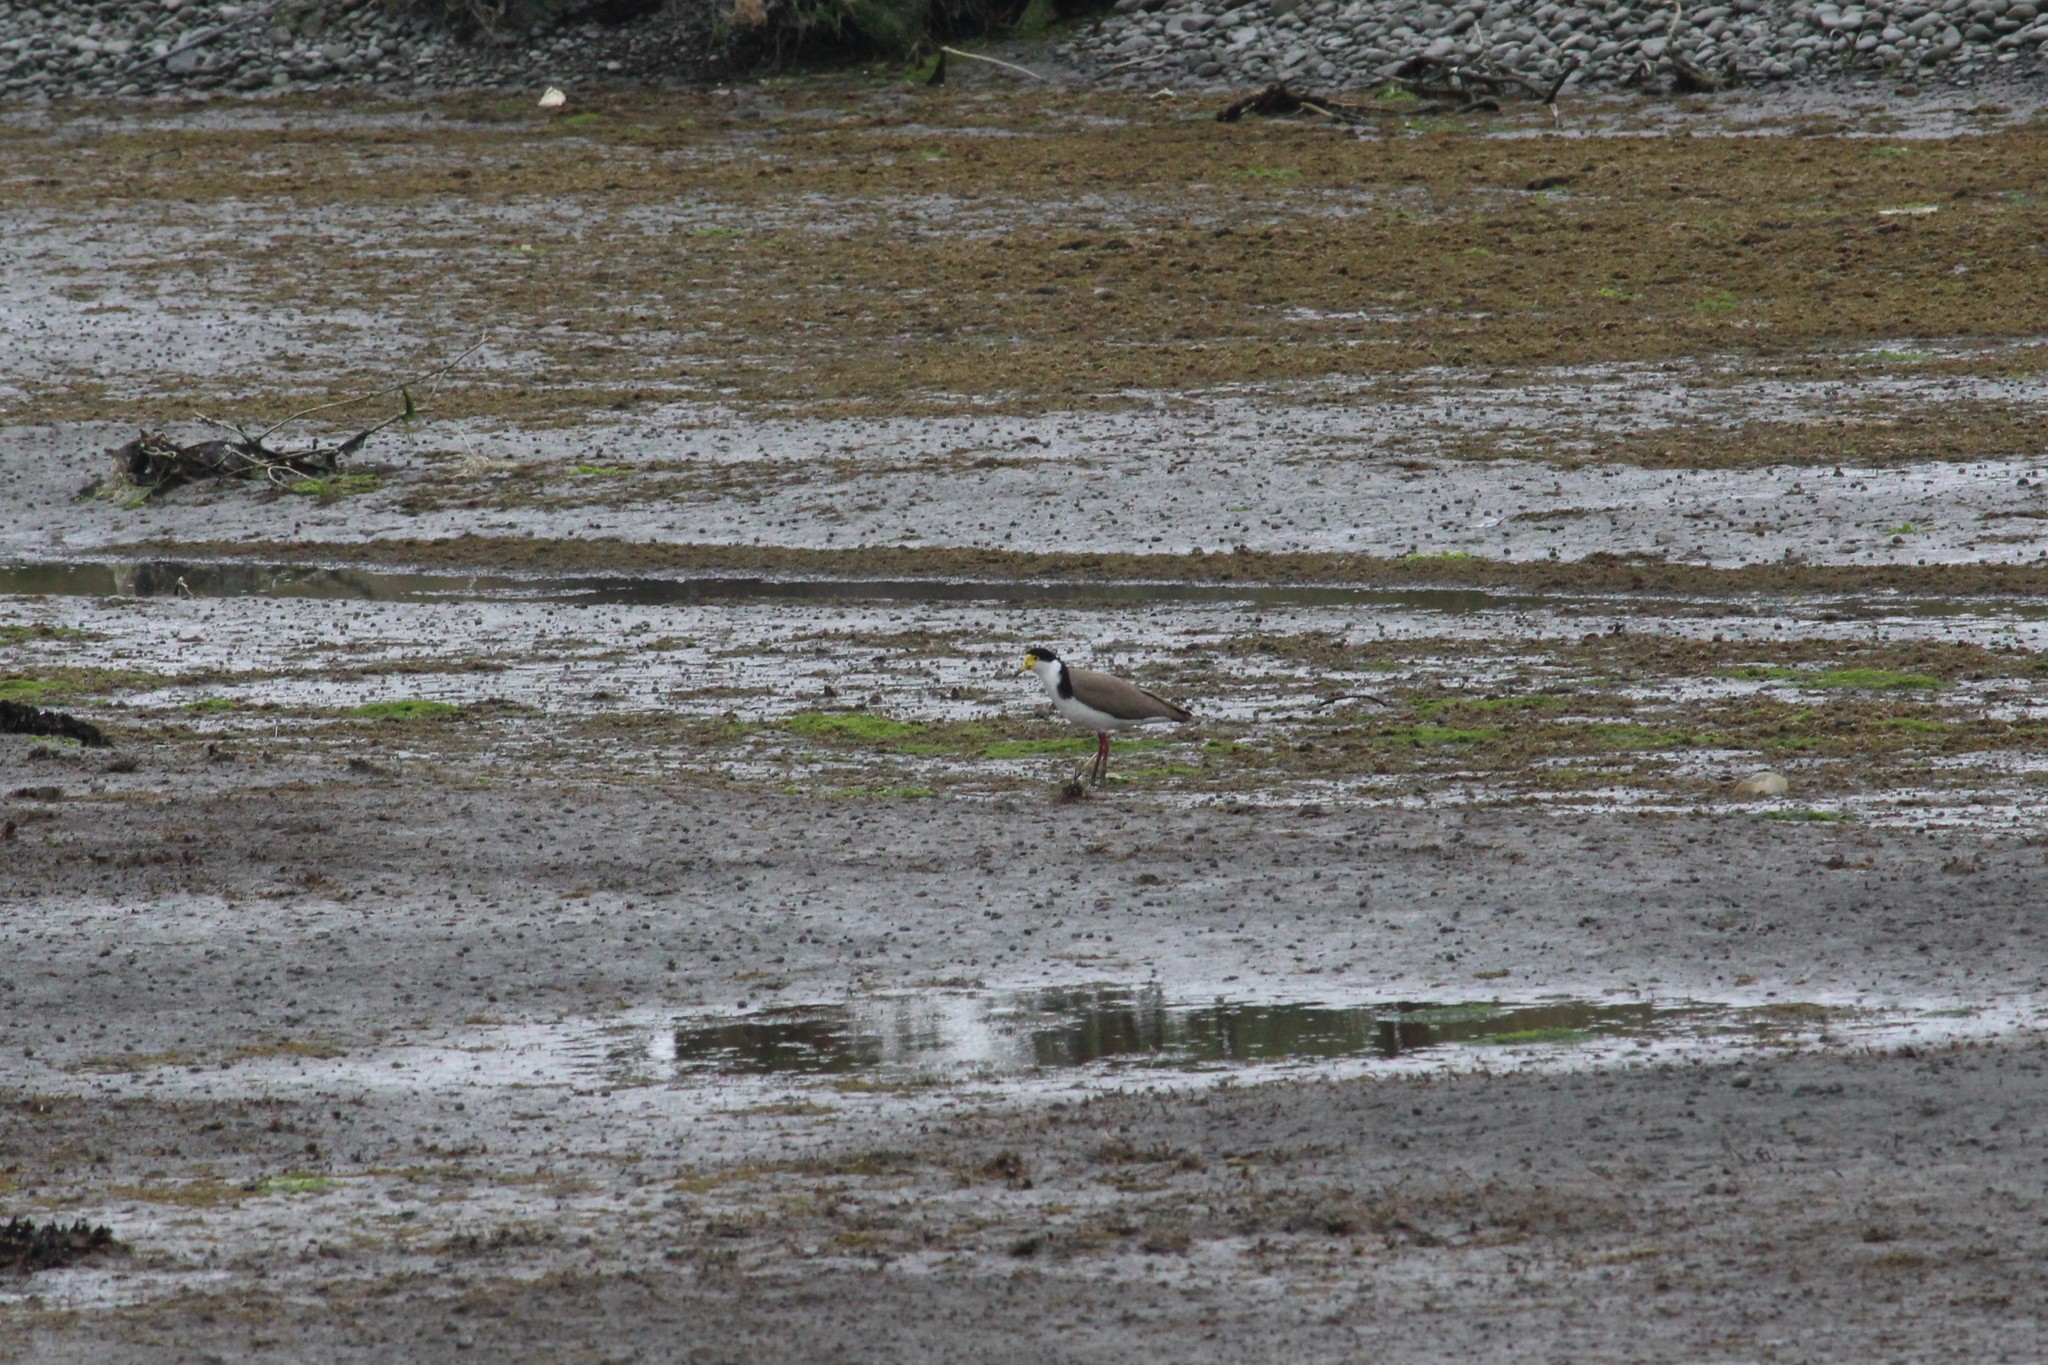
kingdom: Animalia
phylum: Chordata
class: Aves
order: Charadriiformes
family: Charadriidae
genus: Vanellus
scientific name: Vanellus miles
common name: Masked lapwing
